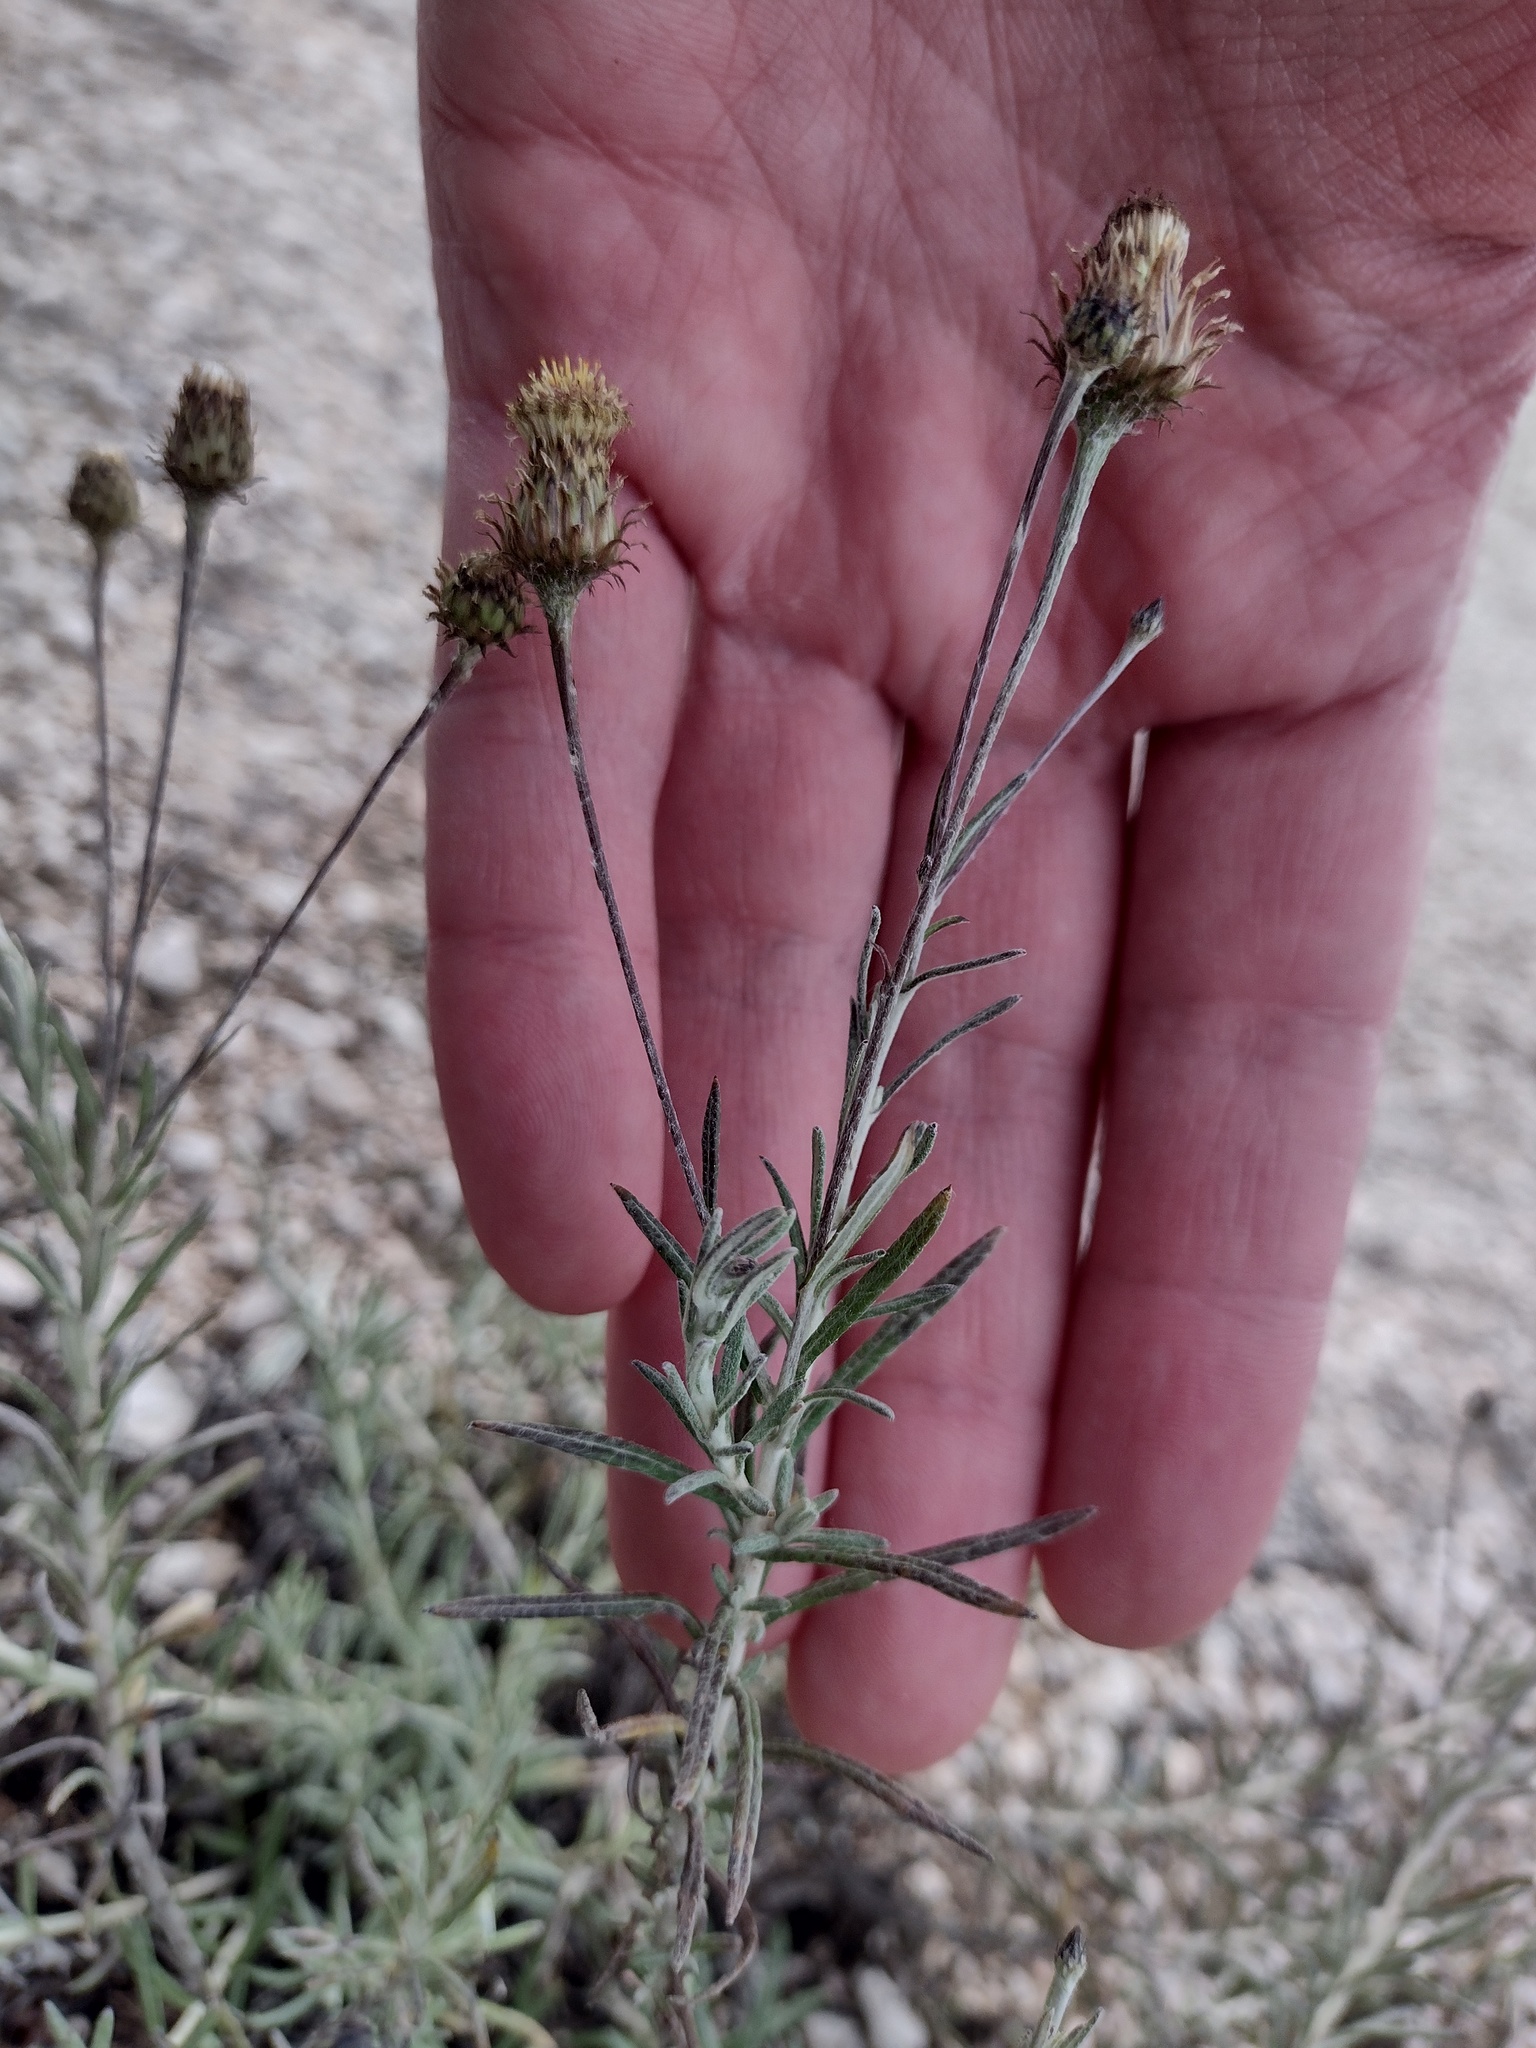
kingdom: Plantae
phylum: Tracheophyta
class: Magnoliopsida
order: Asterales
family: Asteraceae
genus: Phagnalon
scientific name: Phagnalon saxatile
